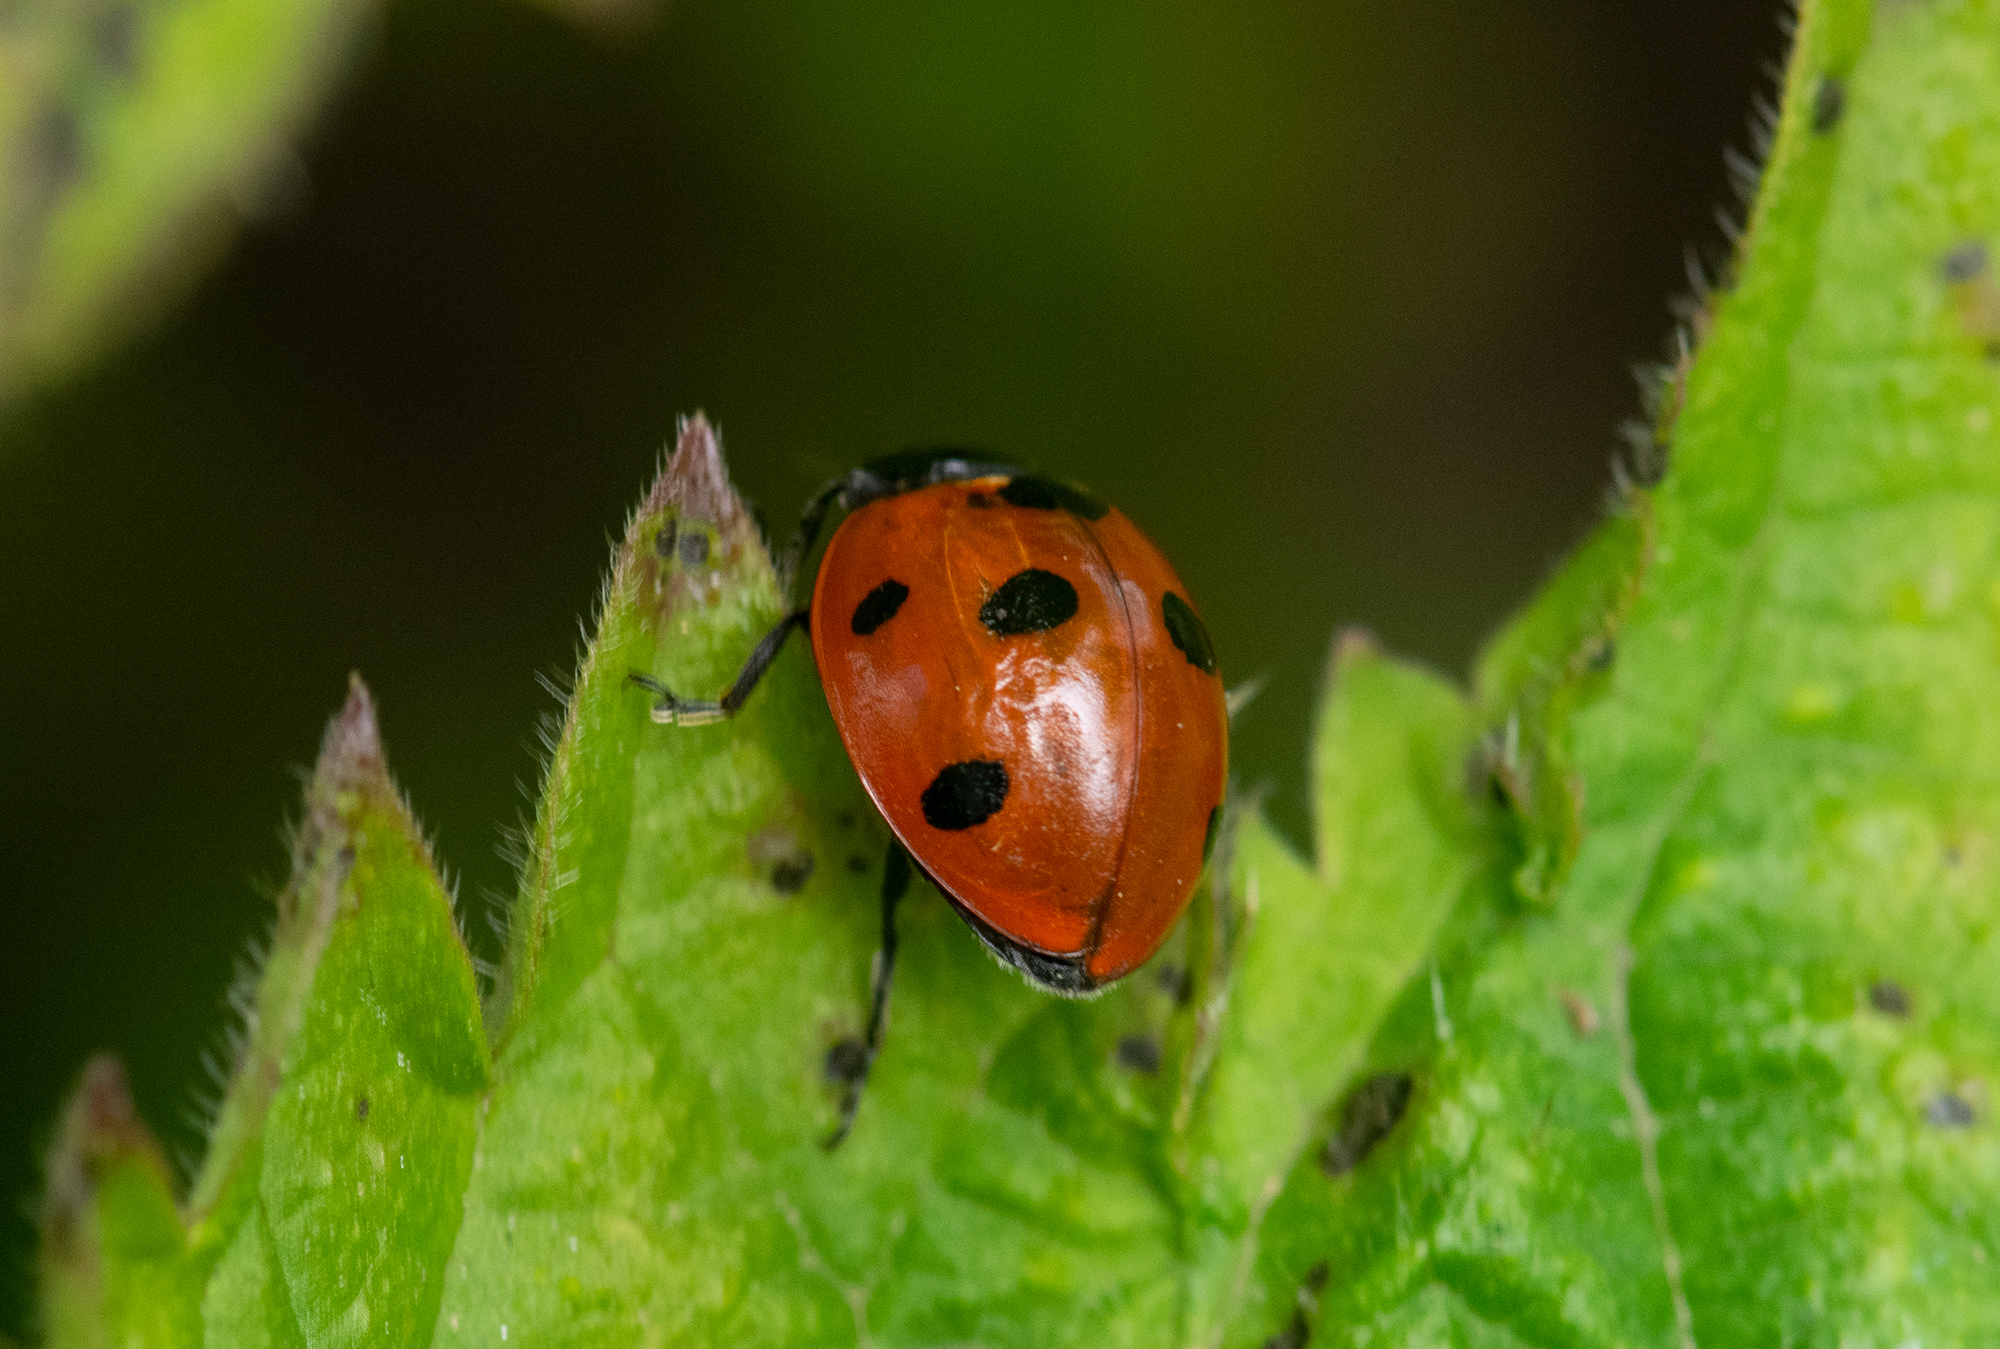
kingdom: Animalia
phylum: Arthropoda
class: Insecta
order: Coleoptera
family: Coccinellidae
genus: Coccinella
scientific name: Coccinella septempunctata
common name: Sevenspotted lady beetle
